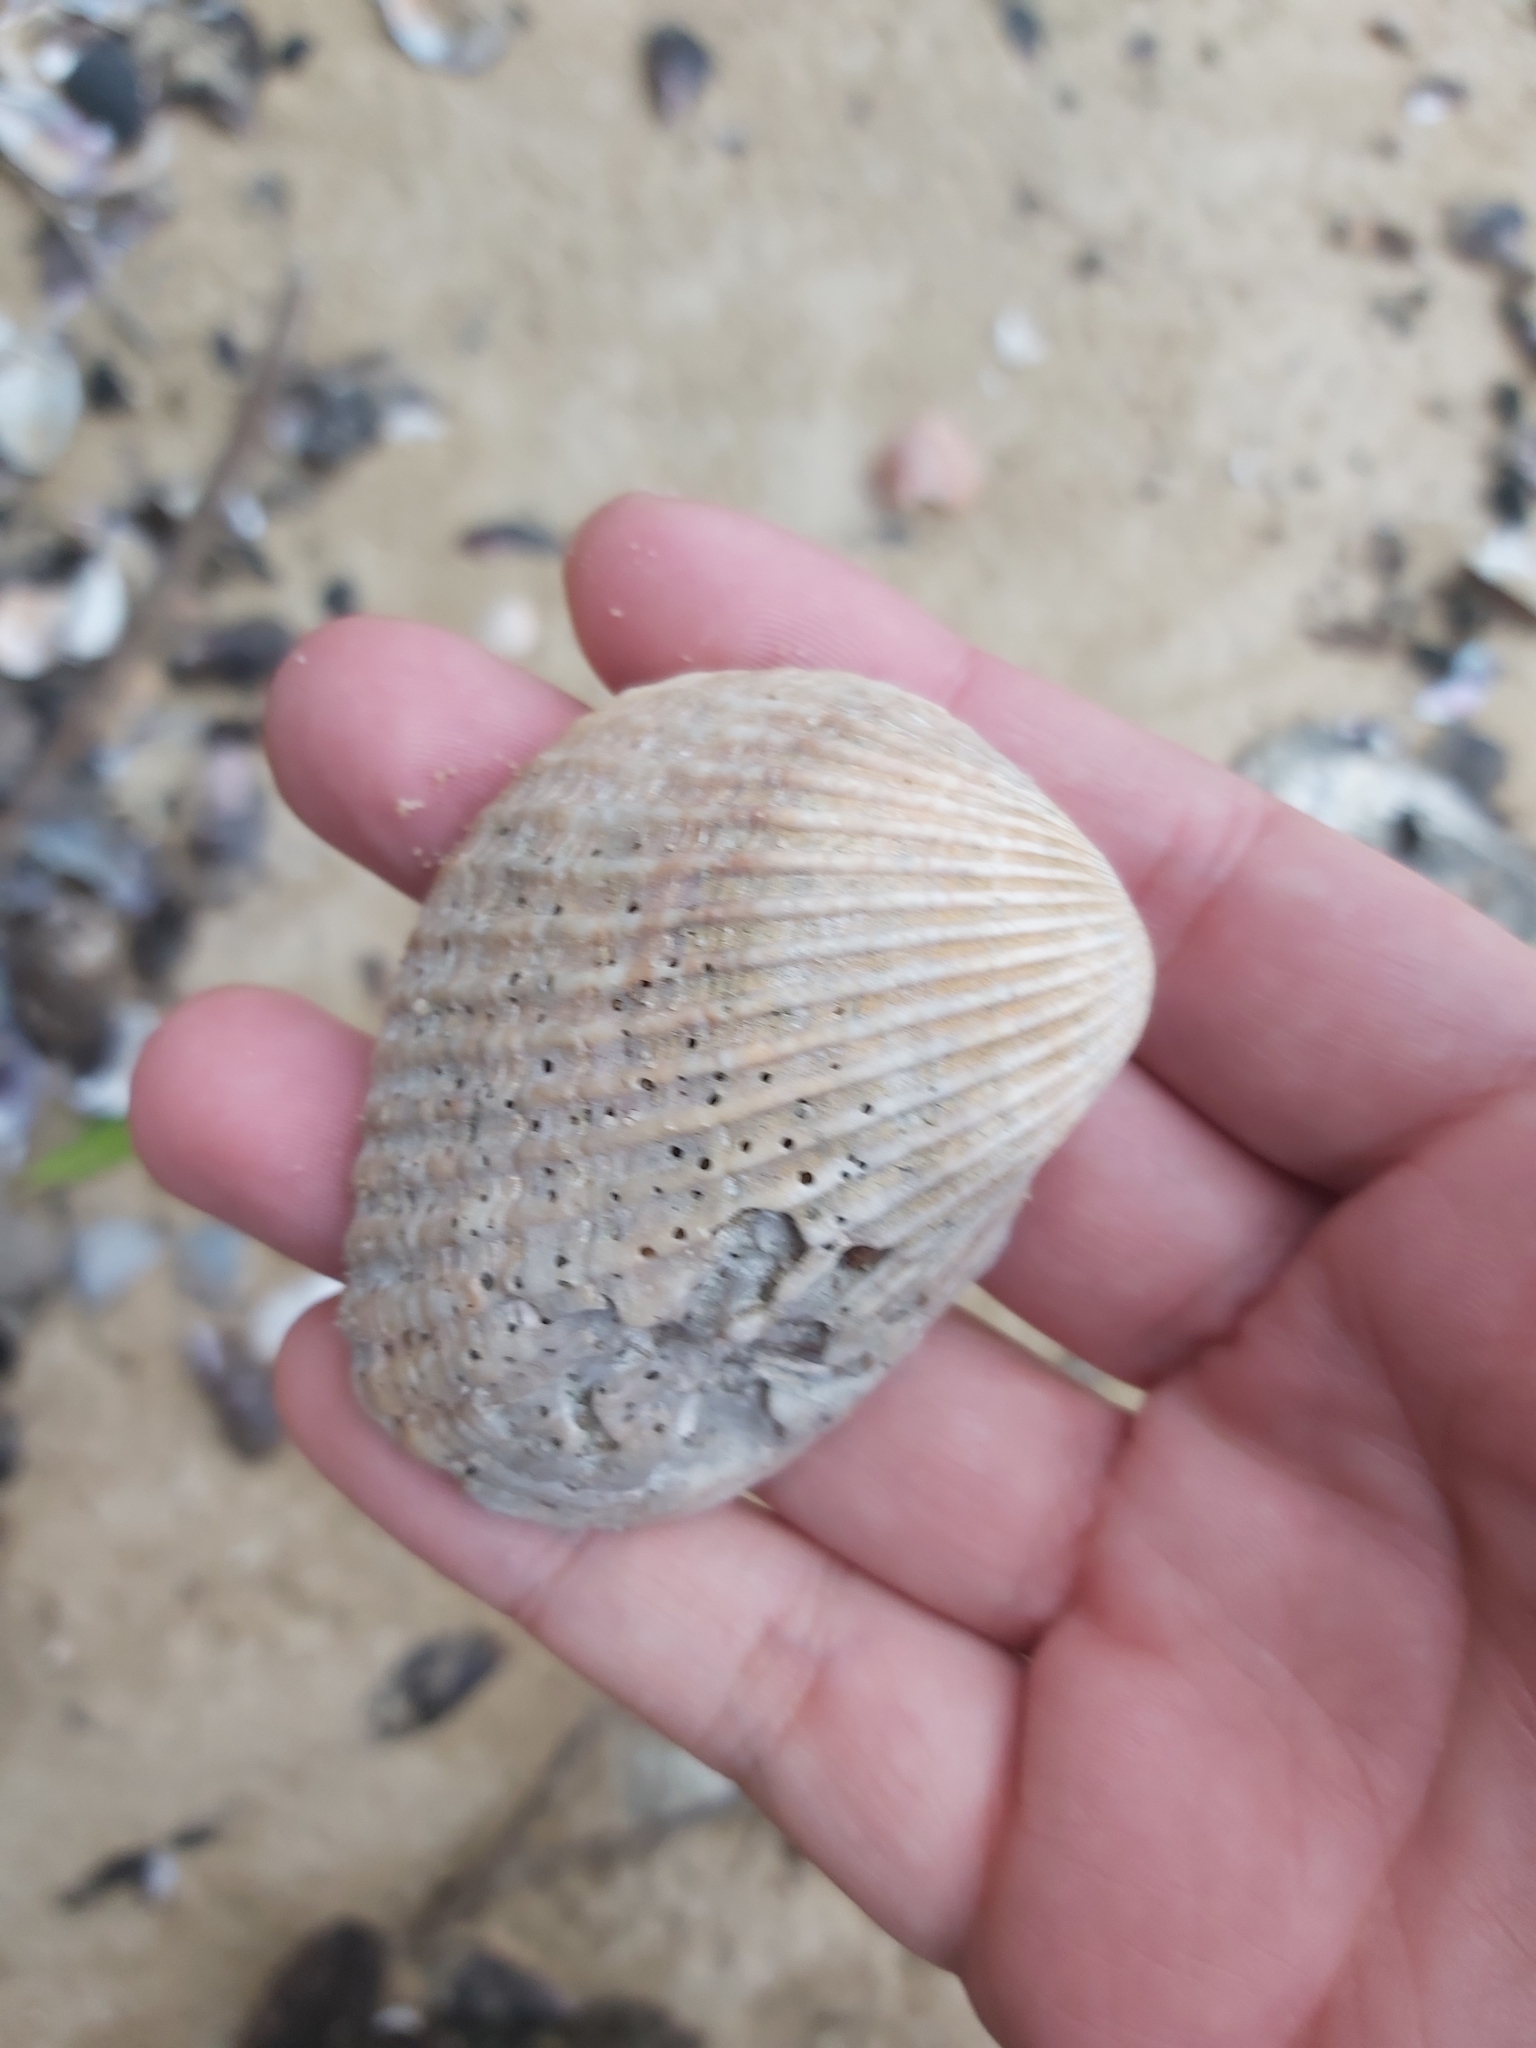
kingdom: Animalia
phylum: Mollusca
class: Bivalvia
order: Arcida
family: Arcidae
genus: Anadara
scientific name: Anadara trapezia
